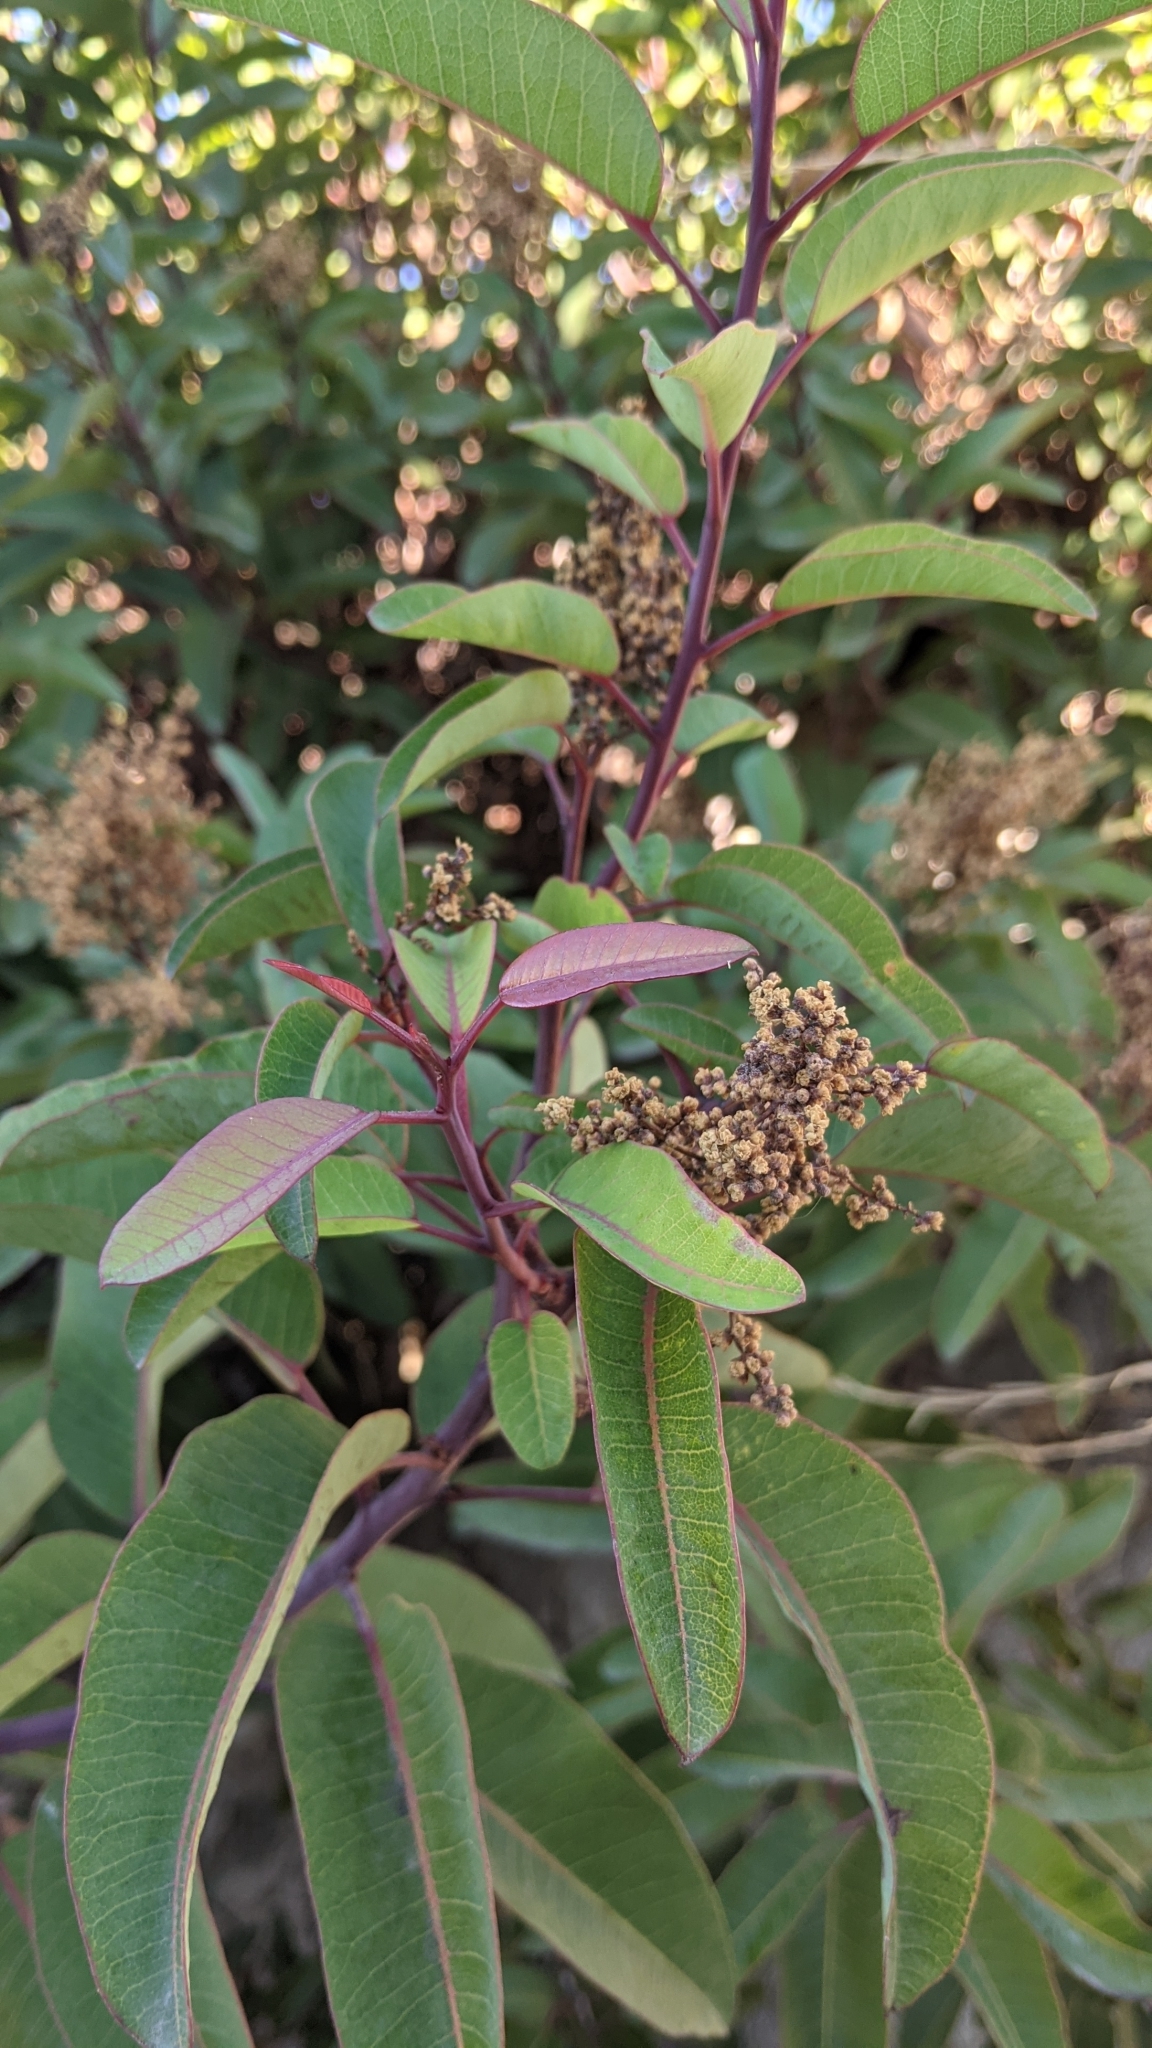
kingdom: Plantae
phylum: Tracheophyta
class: Magnoliopsida
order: Sapindales
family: Anacardiaceae
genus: Malosma
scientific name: Malosma laurina
